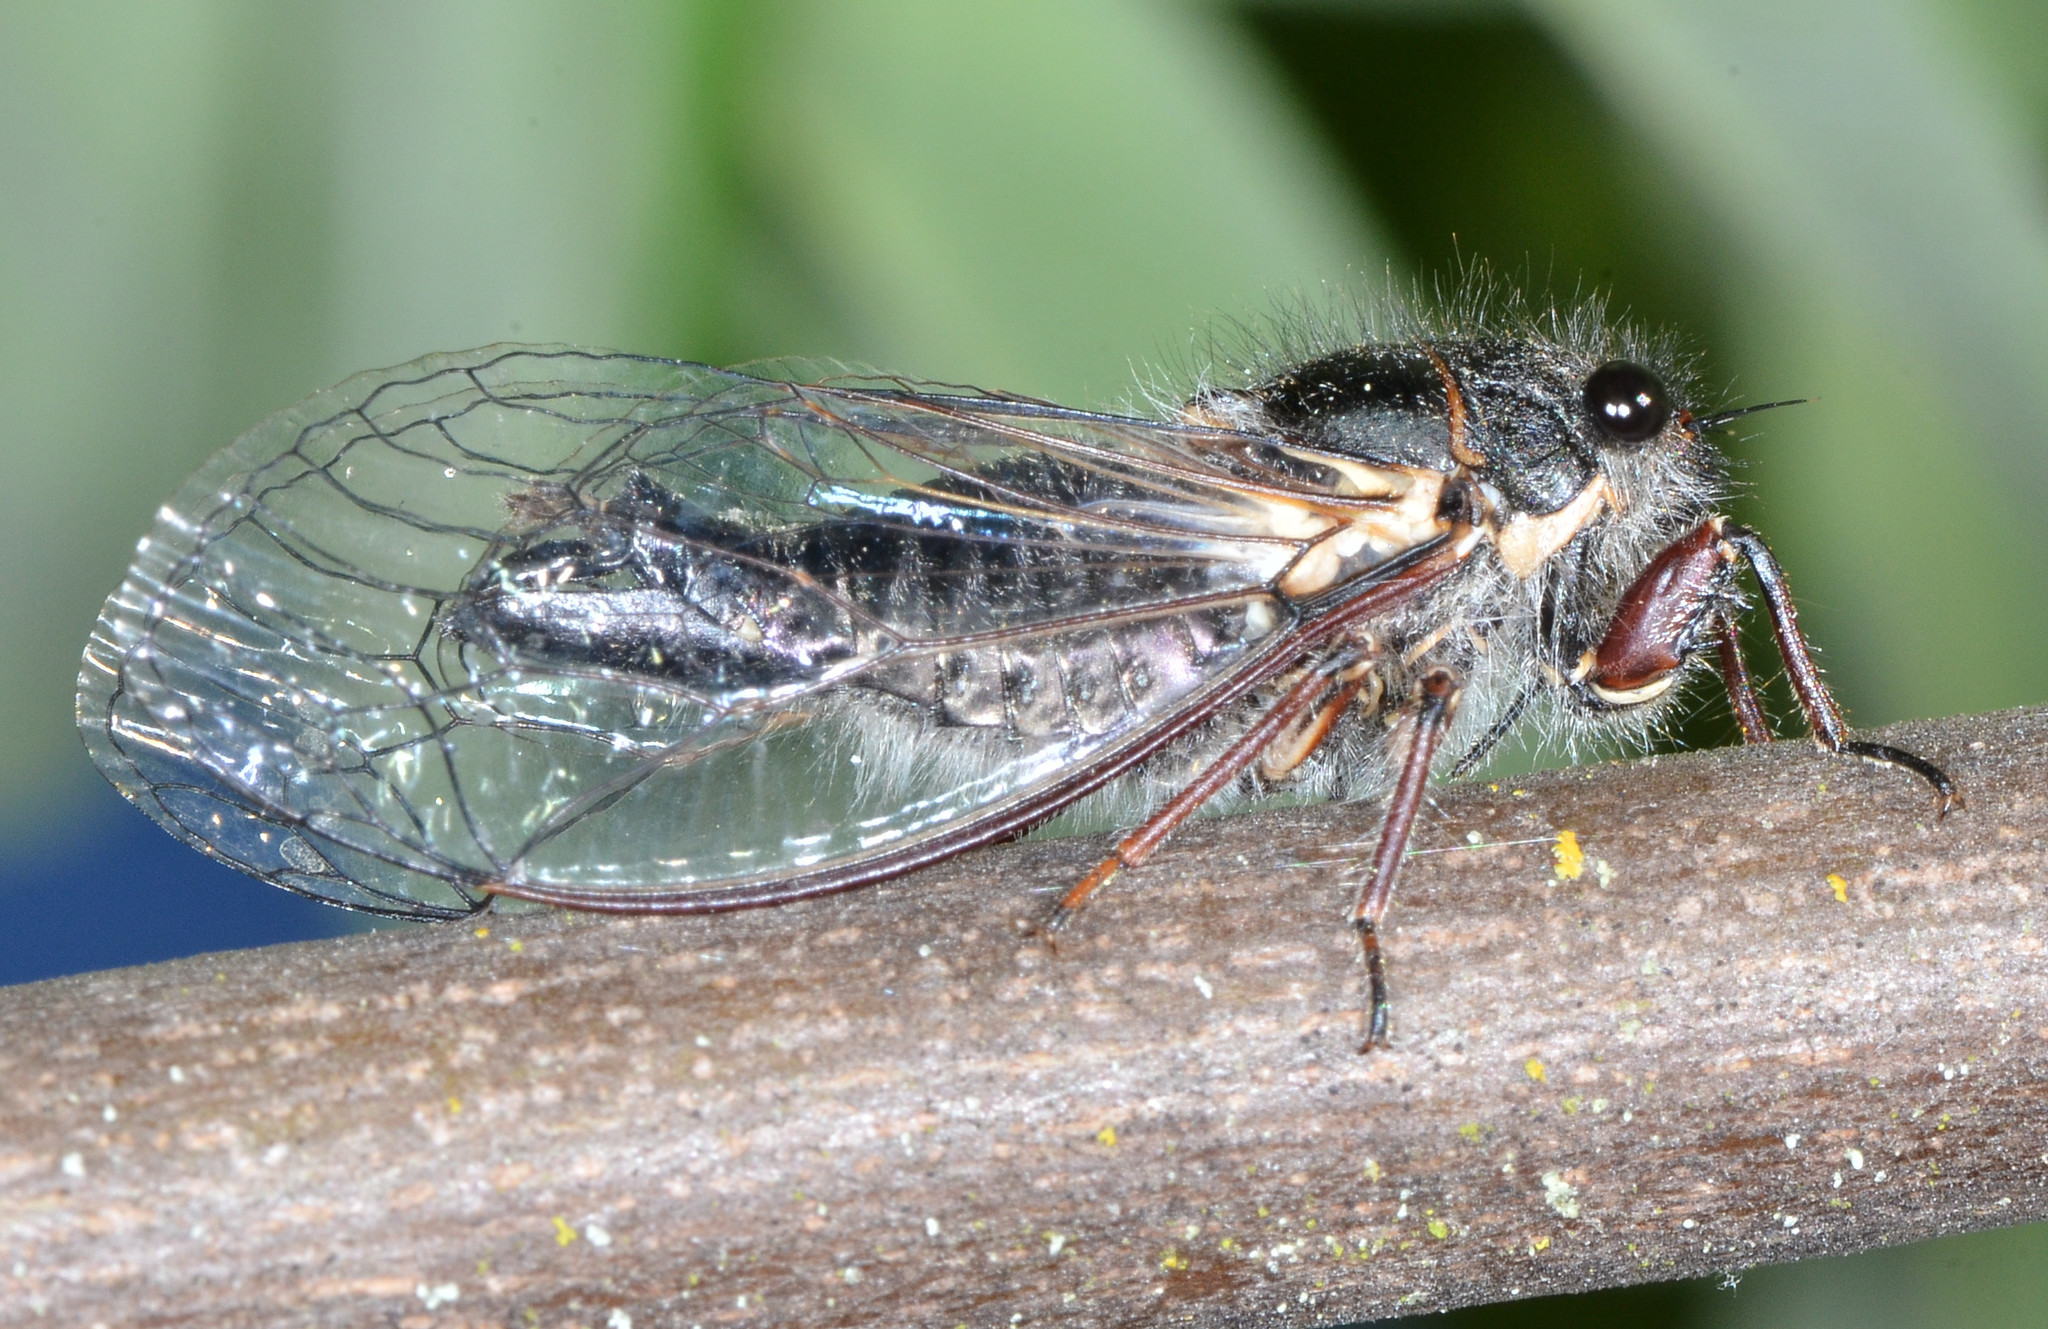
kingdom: Animalia
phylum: Arthropoda
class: Insecta
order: Hemiptera
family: Cicadidae
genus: Platypedia
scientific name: Platypedia minor
